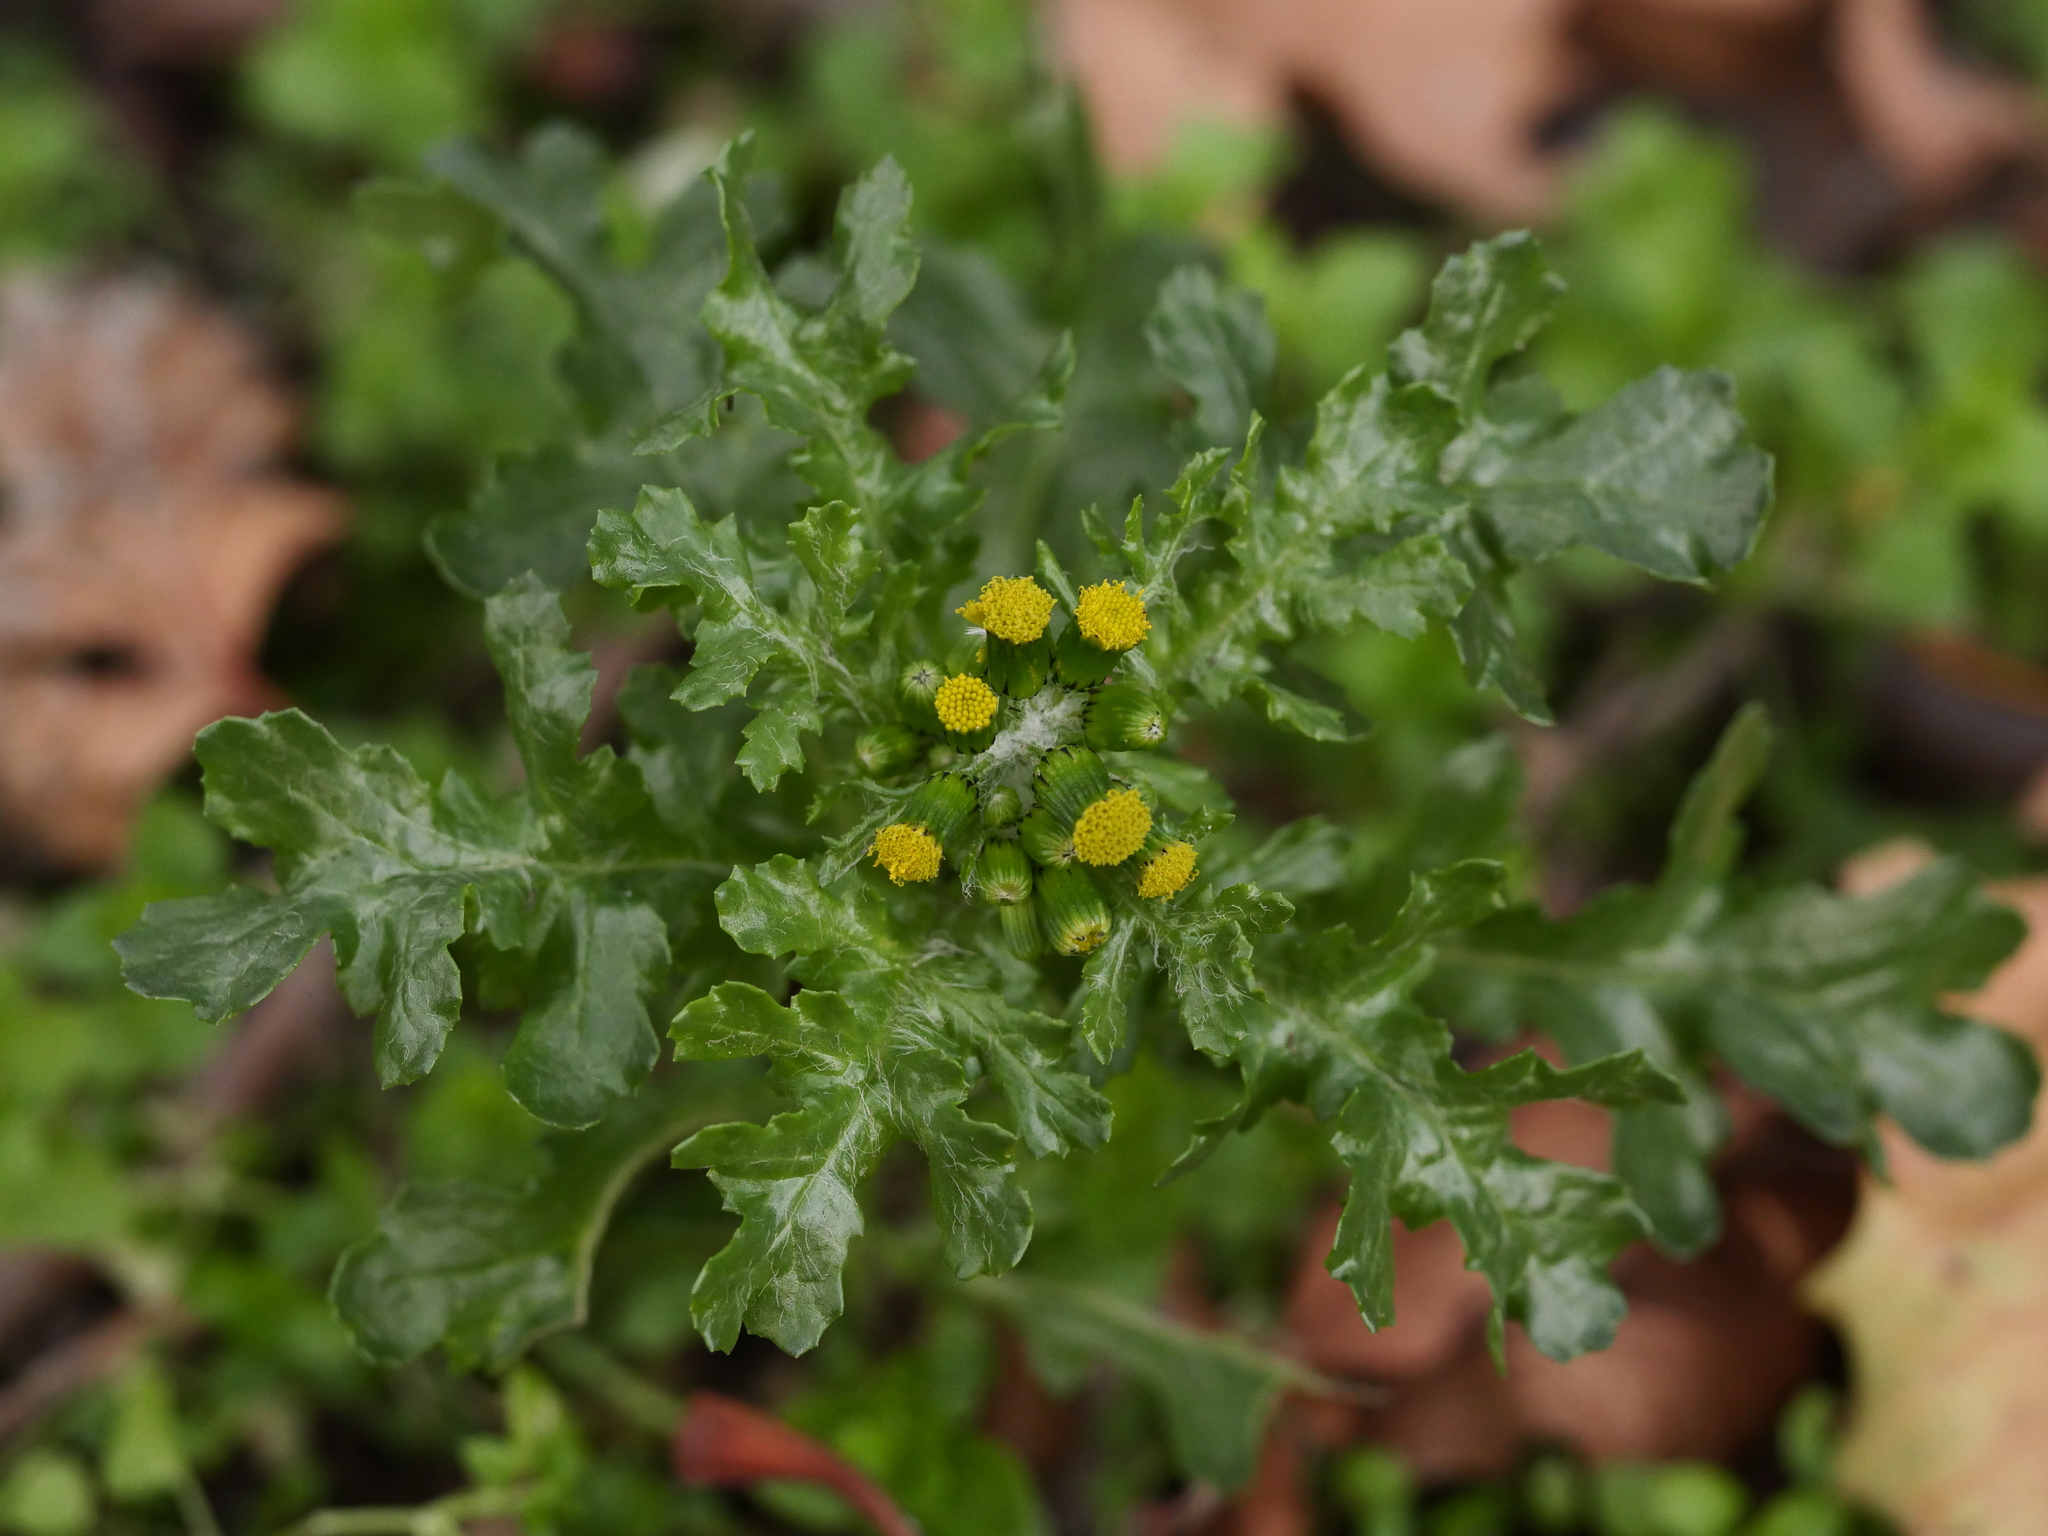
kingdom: Plantae
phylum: Tracheophyta
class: Magnoliopsida
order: Asterales
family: Asteraceae
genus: Senecio
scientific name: Senecio vulgaris
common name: Old-man-in-the-spring
